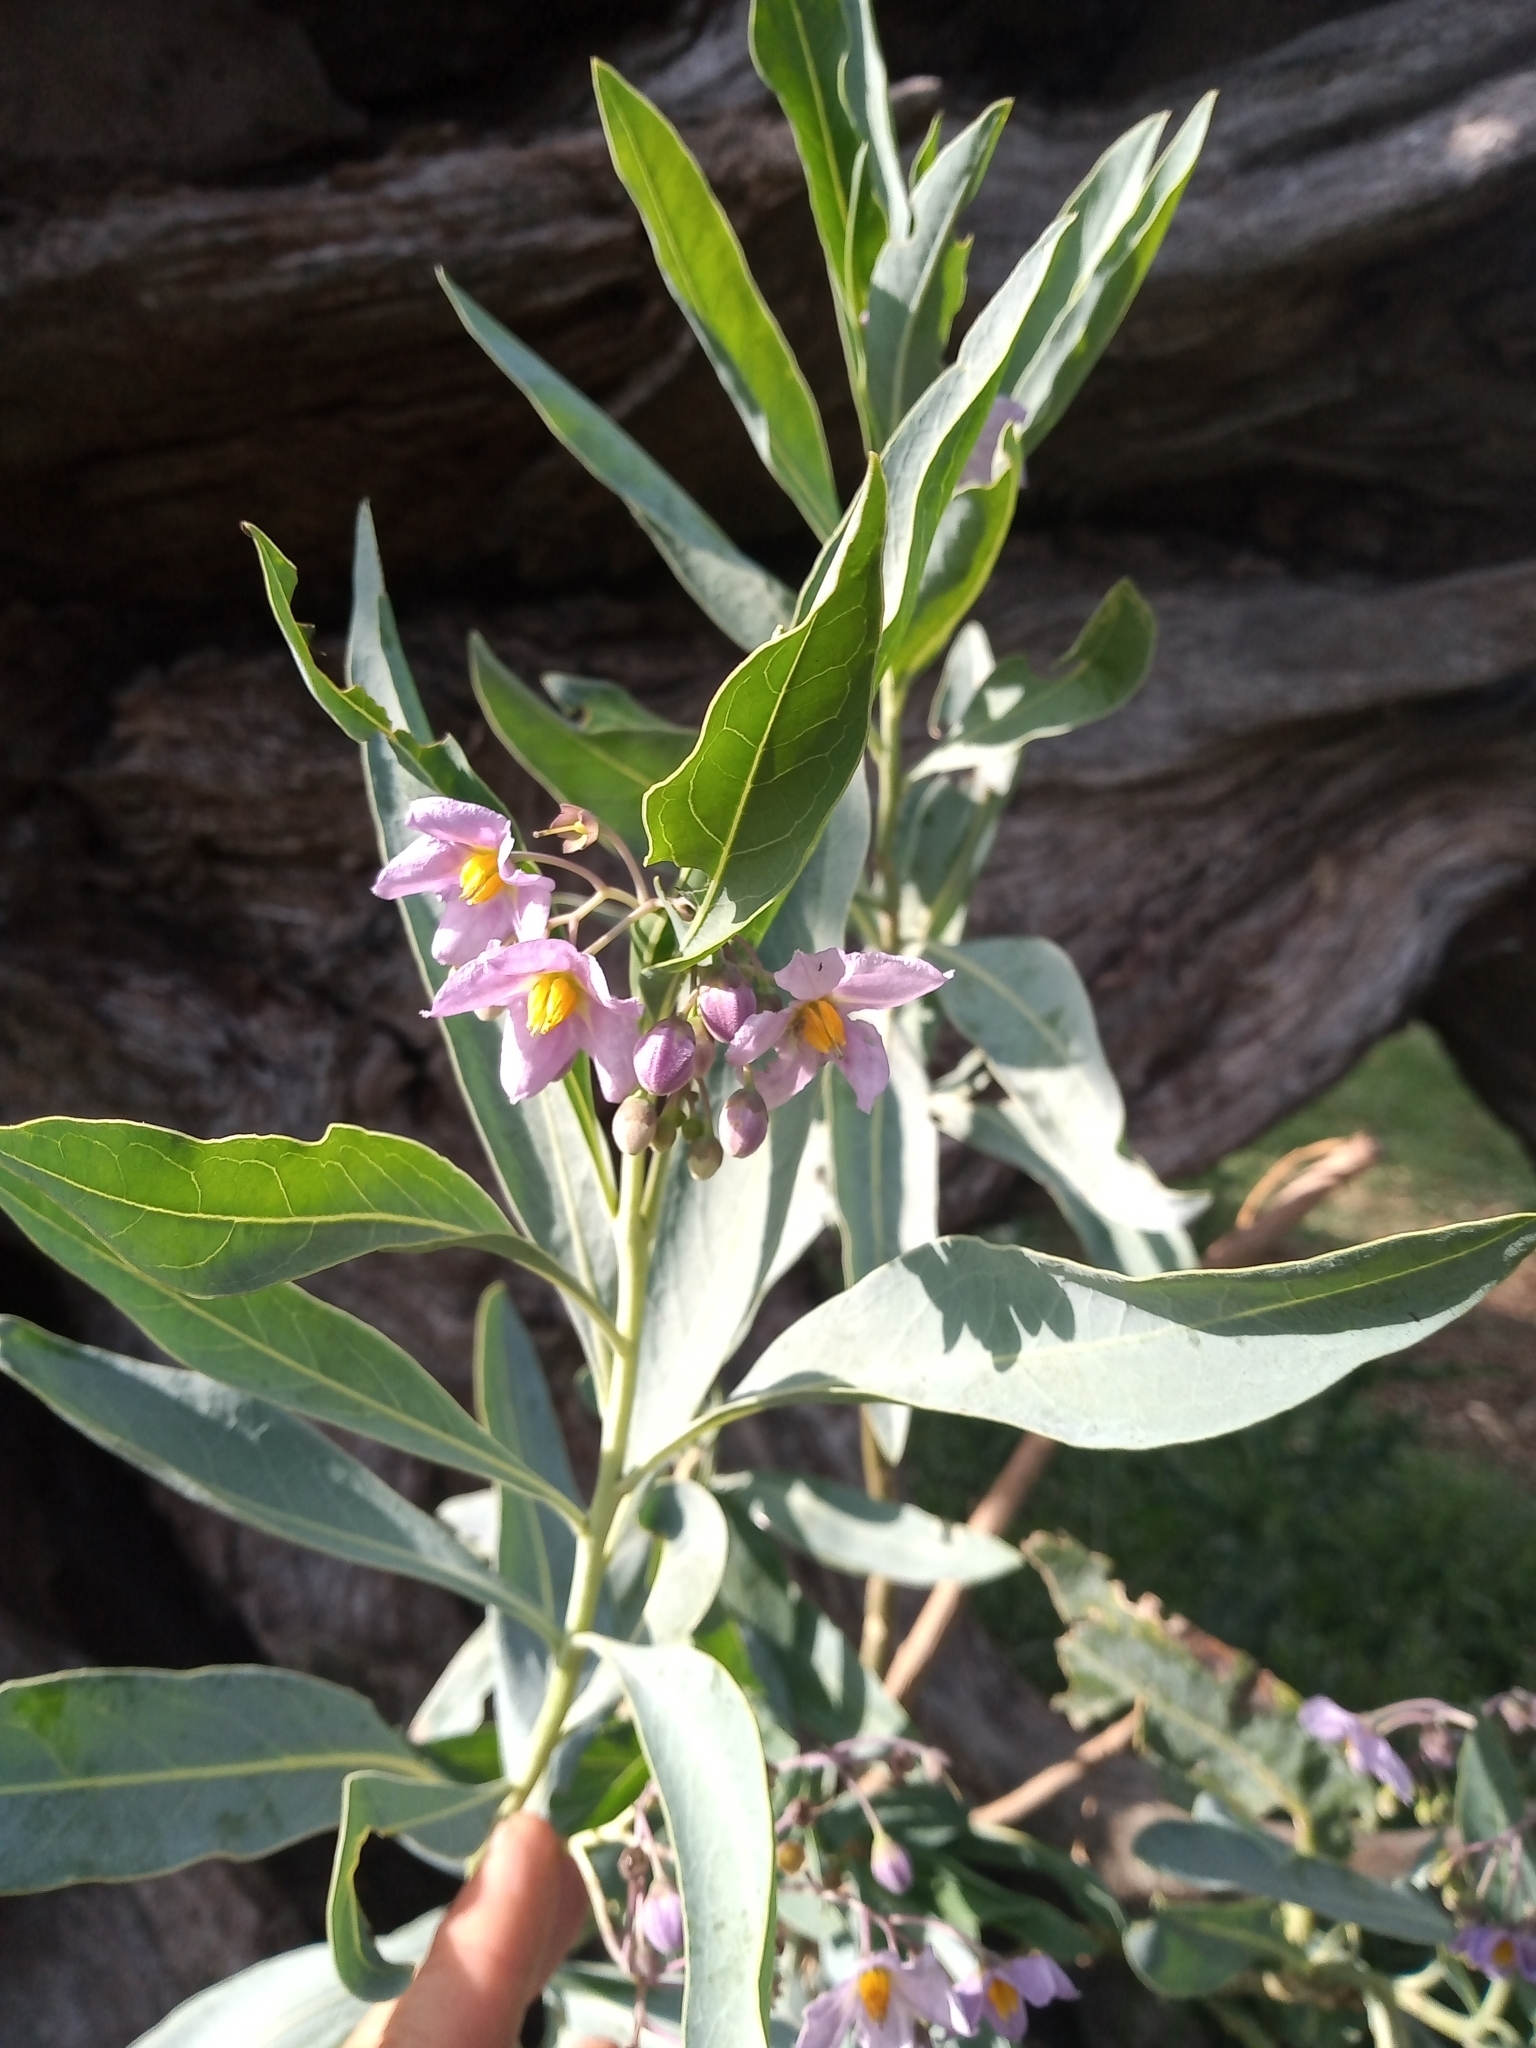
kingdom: Plantae
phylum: Tracheophyta
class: Magnoliopsida
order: Solanales
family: Solanaceae
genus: Solanum
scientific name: Solanum glaucophyllum
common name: Waxyleaf nightshade
